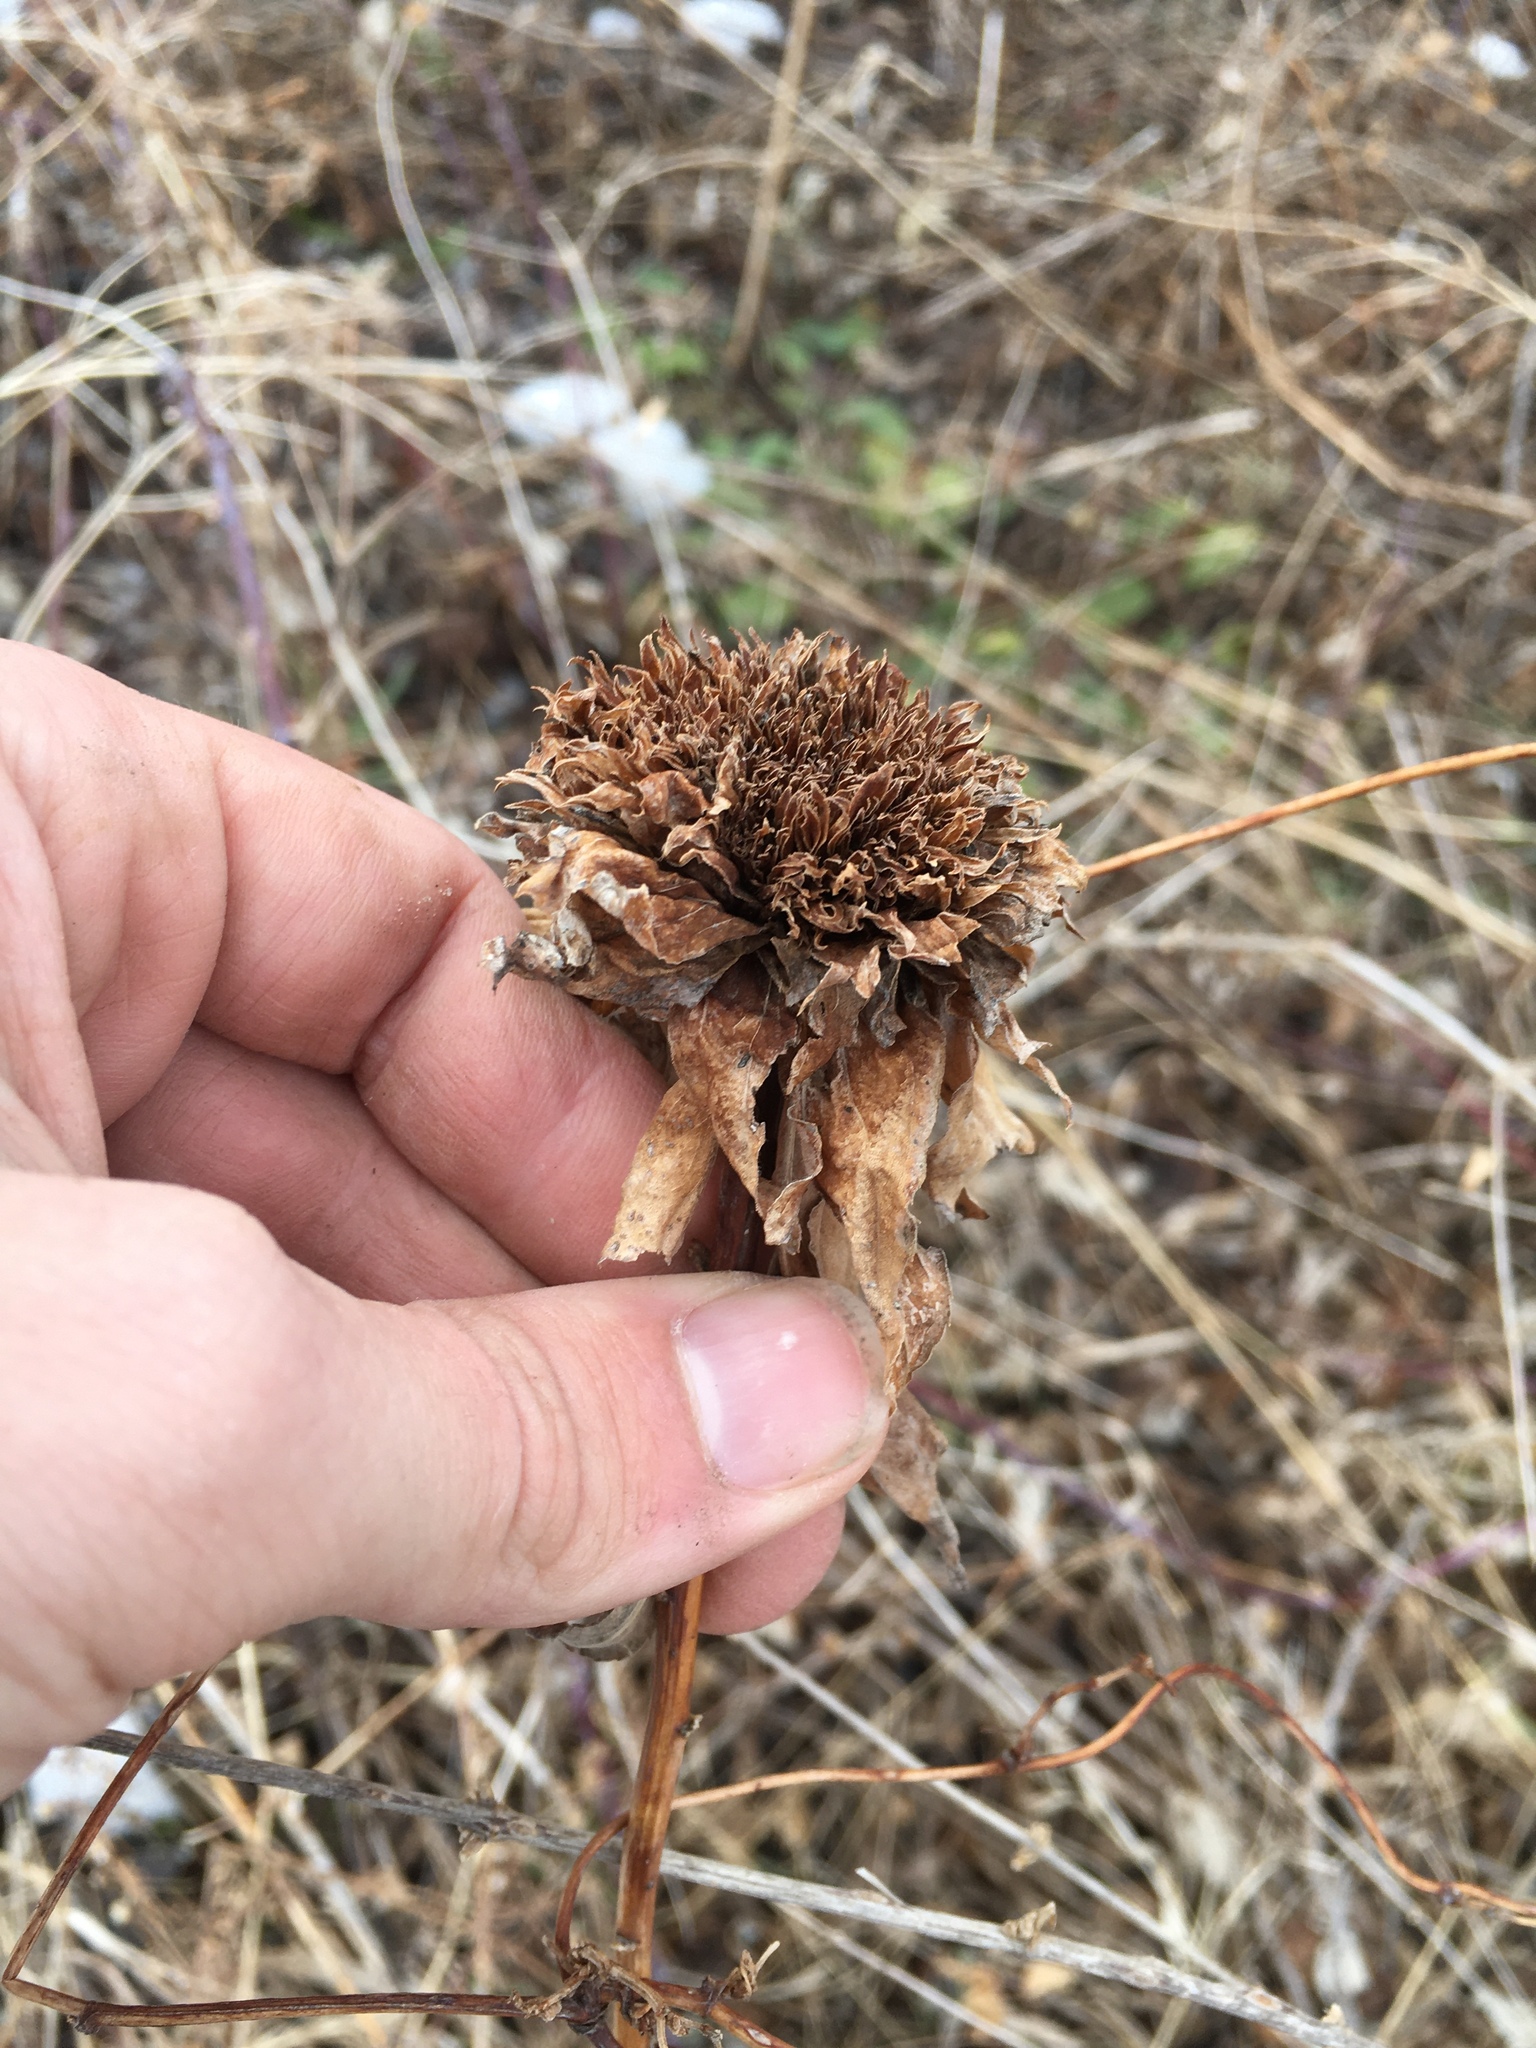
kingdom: Animalia
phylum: Arthropoda
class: Insecta
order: Diptera
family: Cecidomyiidae
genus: Rhopalomyia
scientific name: Rhopalomyia capitata
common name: Giant goldenrod bunch gall midge
